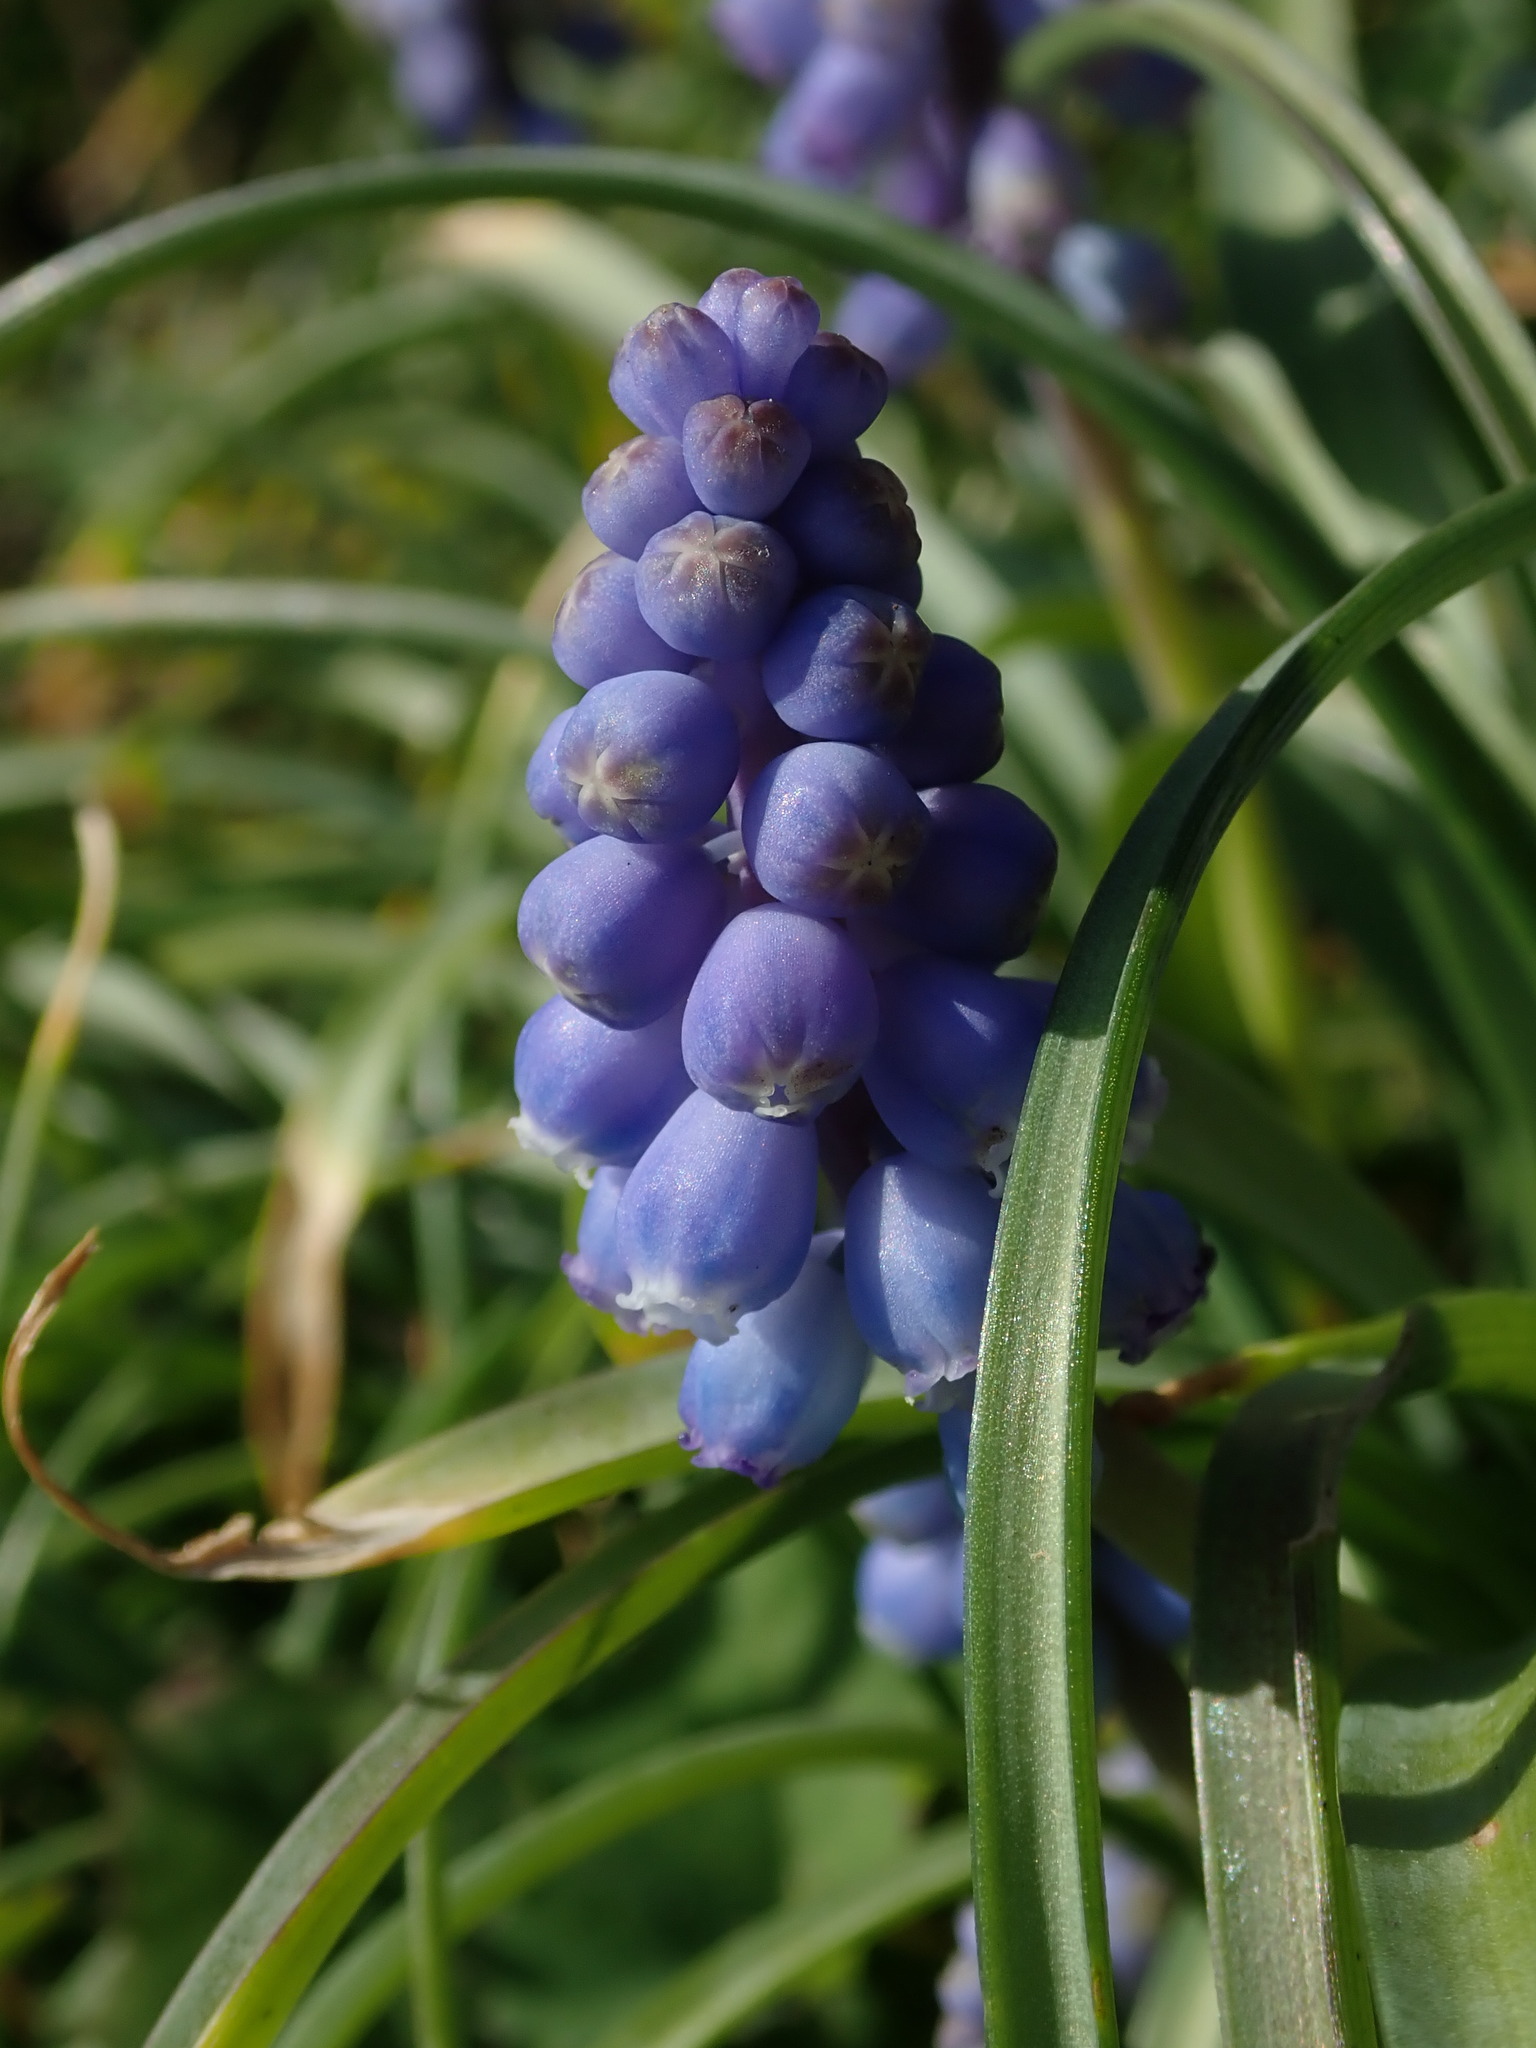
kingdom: Plantae
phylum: Tracheophyta
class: Liliopsida
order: Asparagales
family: Asparagaceae
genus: Muscari
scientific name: Muscari armeniacum
